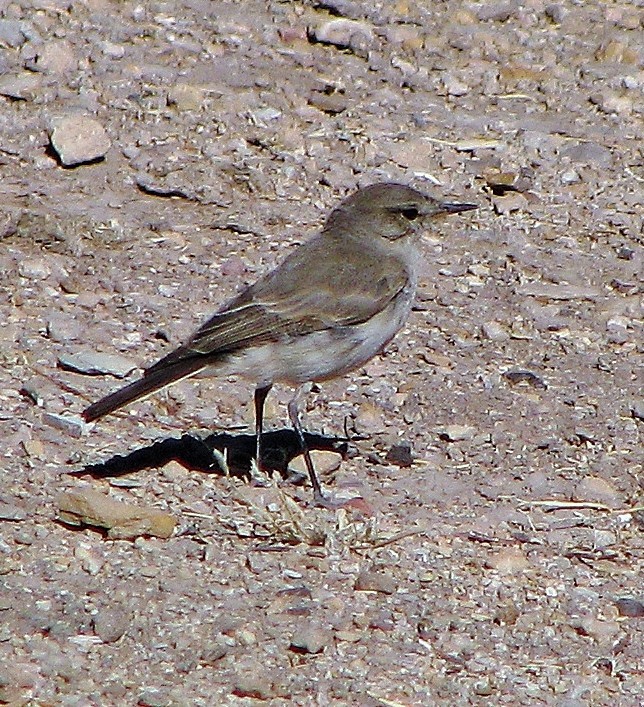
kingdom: Animalia
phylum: Chordata
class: Aves
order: Passeriformes
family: Tyrannidae
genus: Muscisaxicola
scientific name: Muscisaxicola maculirostris
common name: Spot-billed ground tyrant
